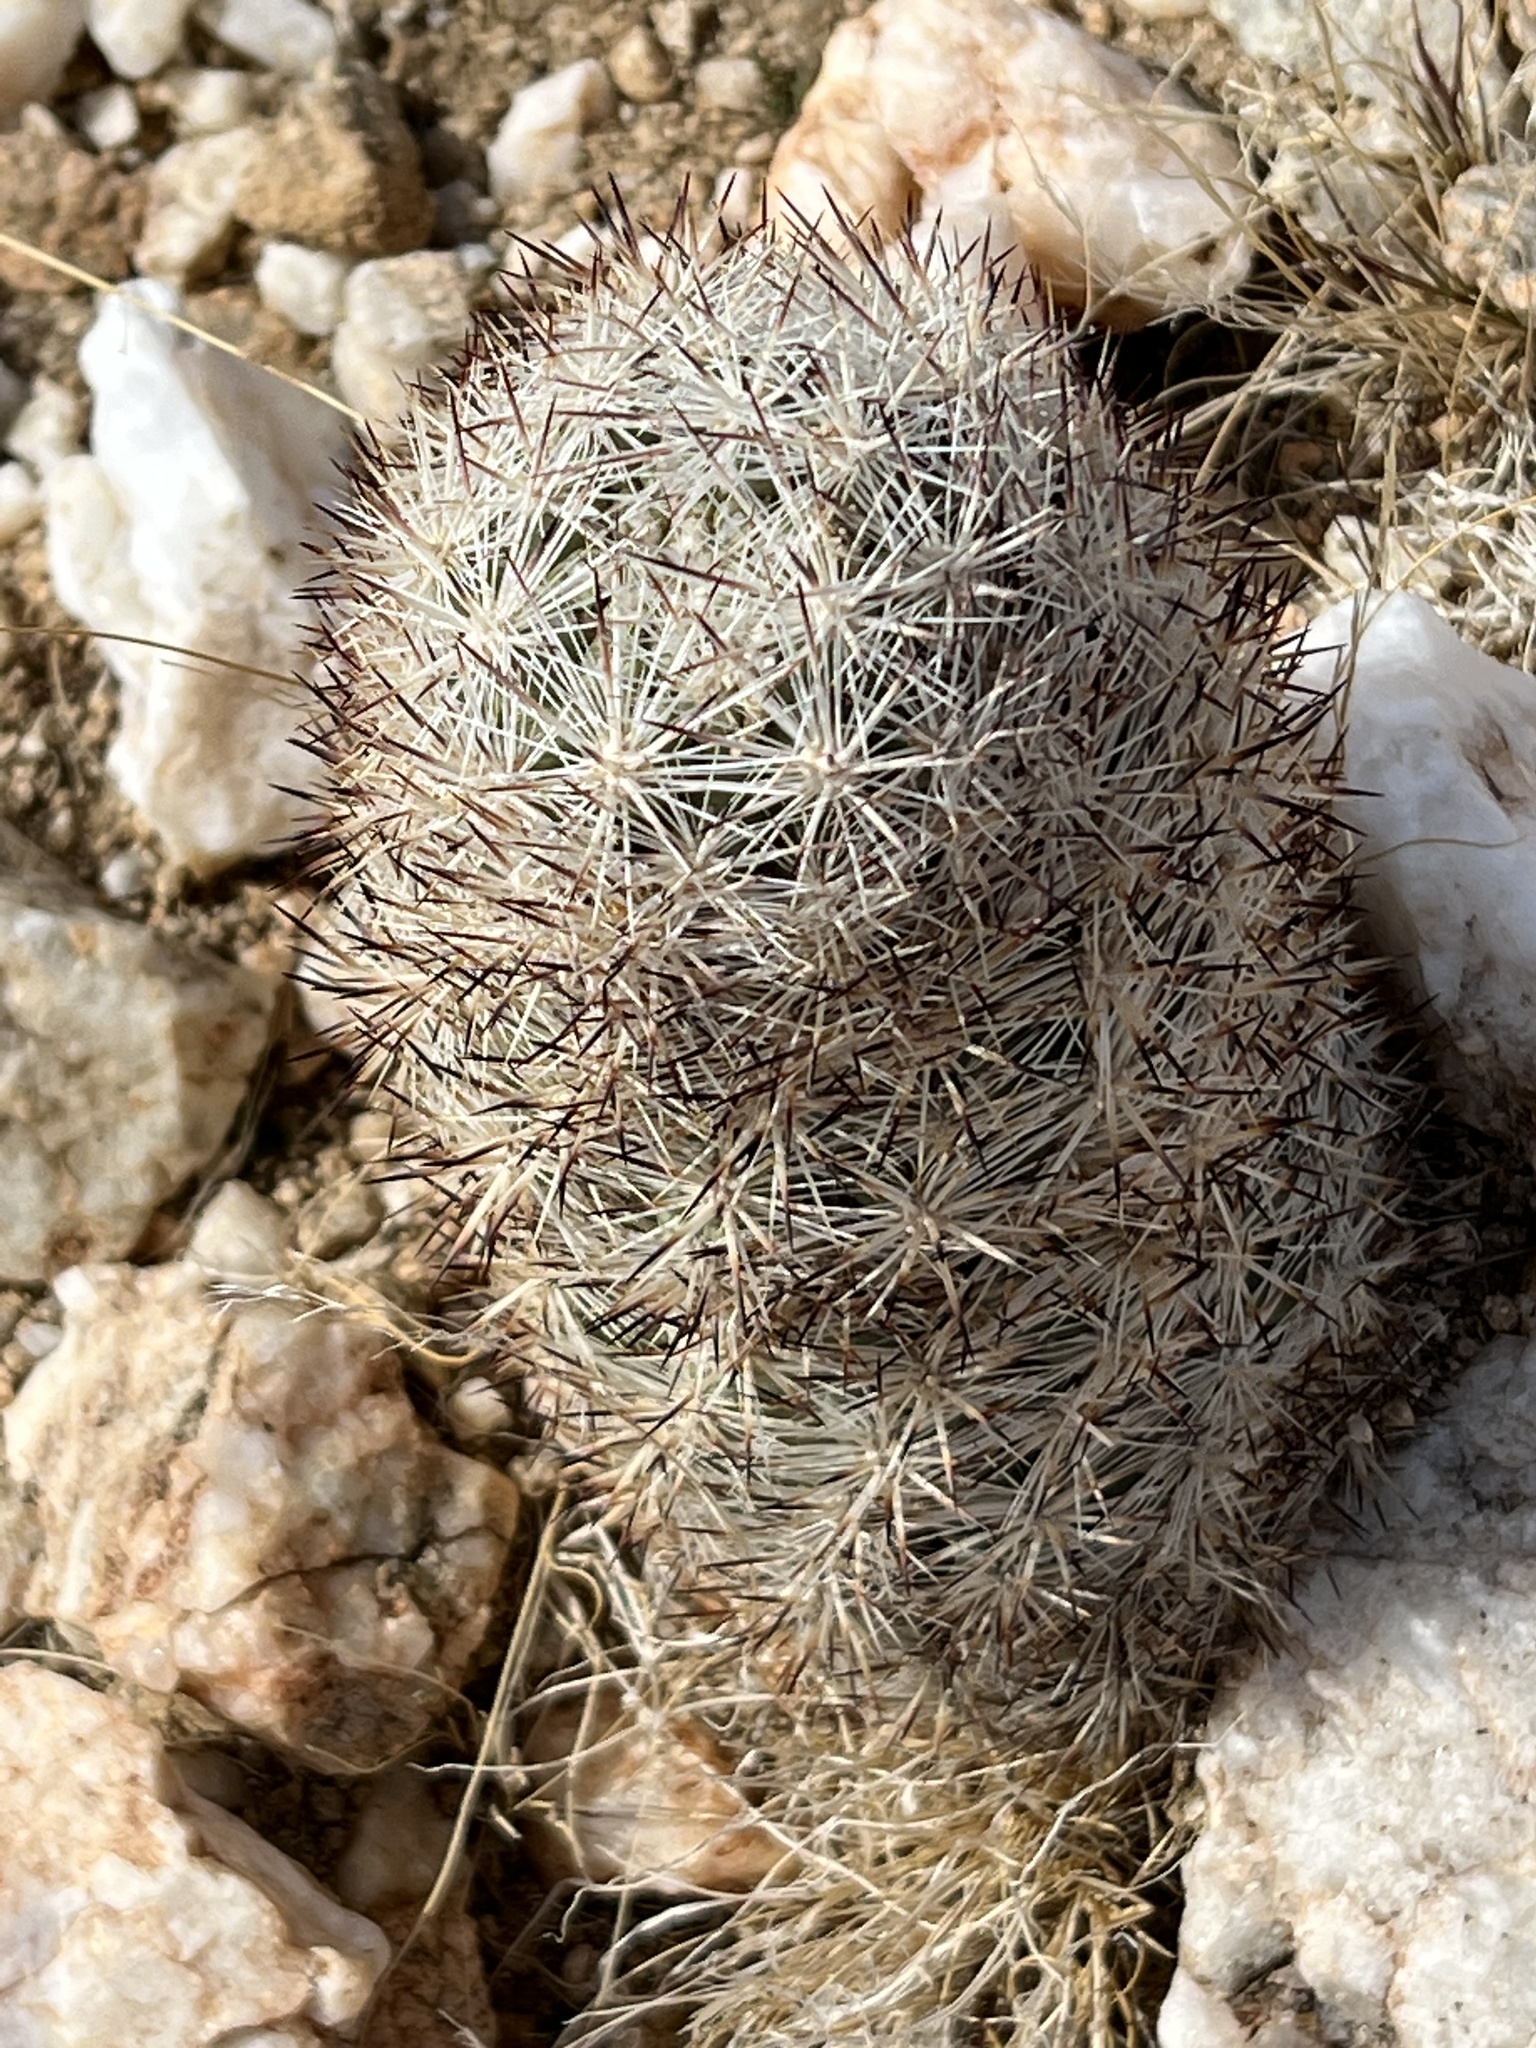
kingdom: Plantae
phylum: Tracheophyta
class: Magnoliopsida
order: Caryophyllales
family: Cactaceae
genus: Pelecyphora
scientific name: Pelecyphora alversonii
